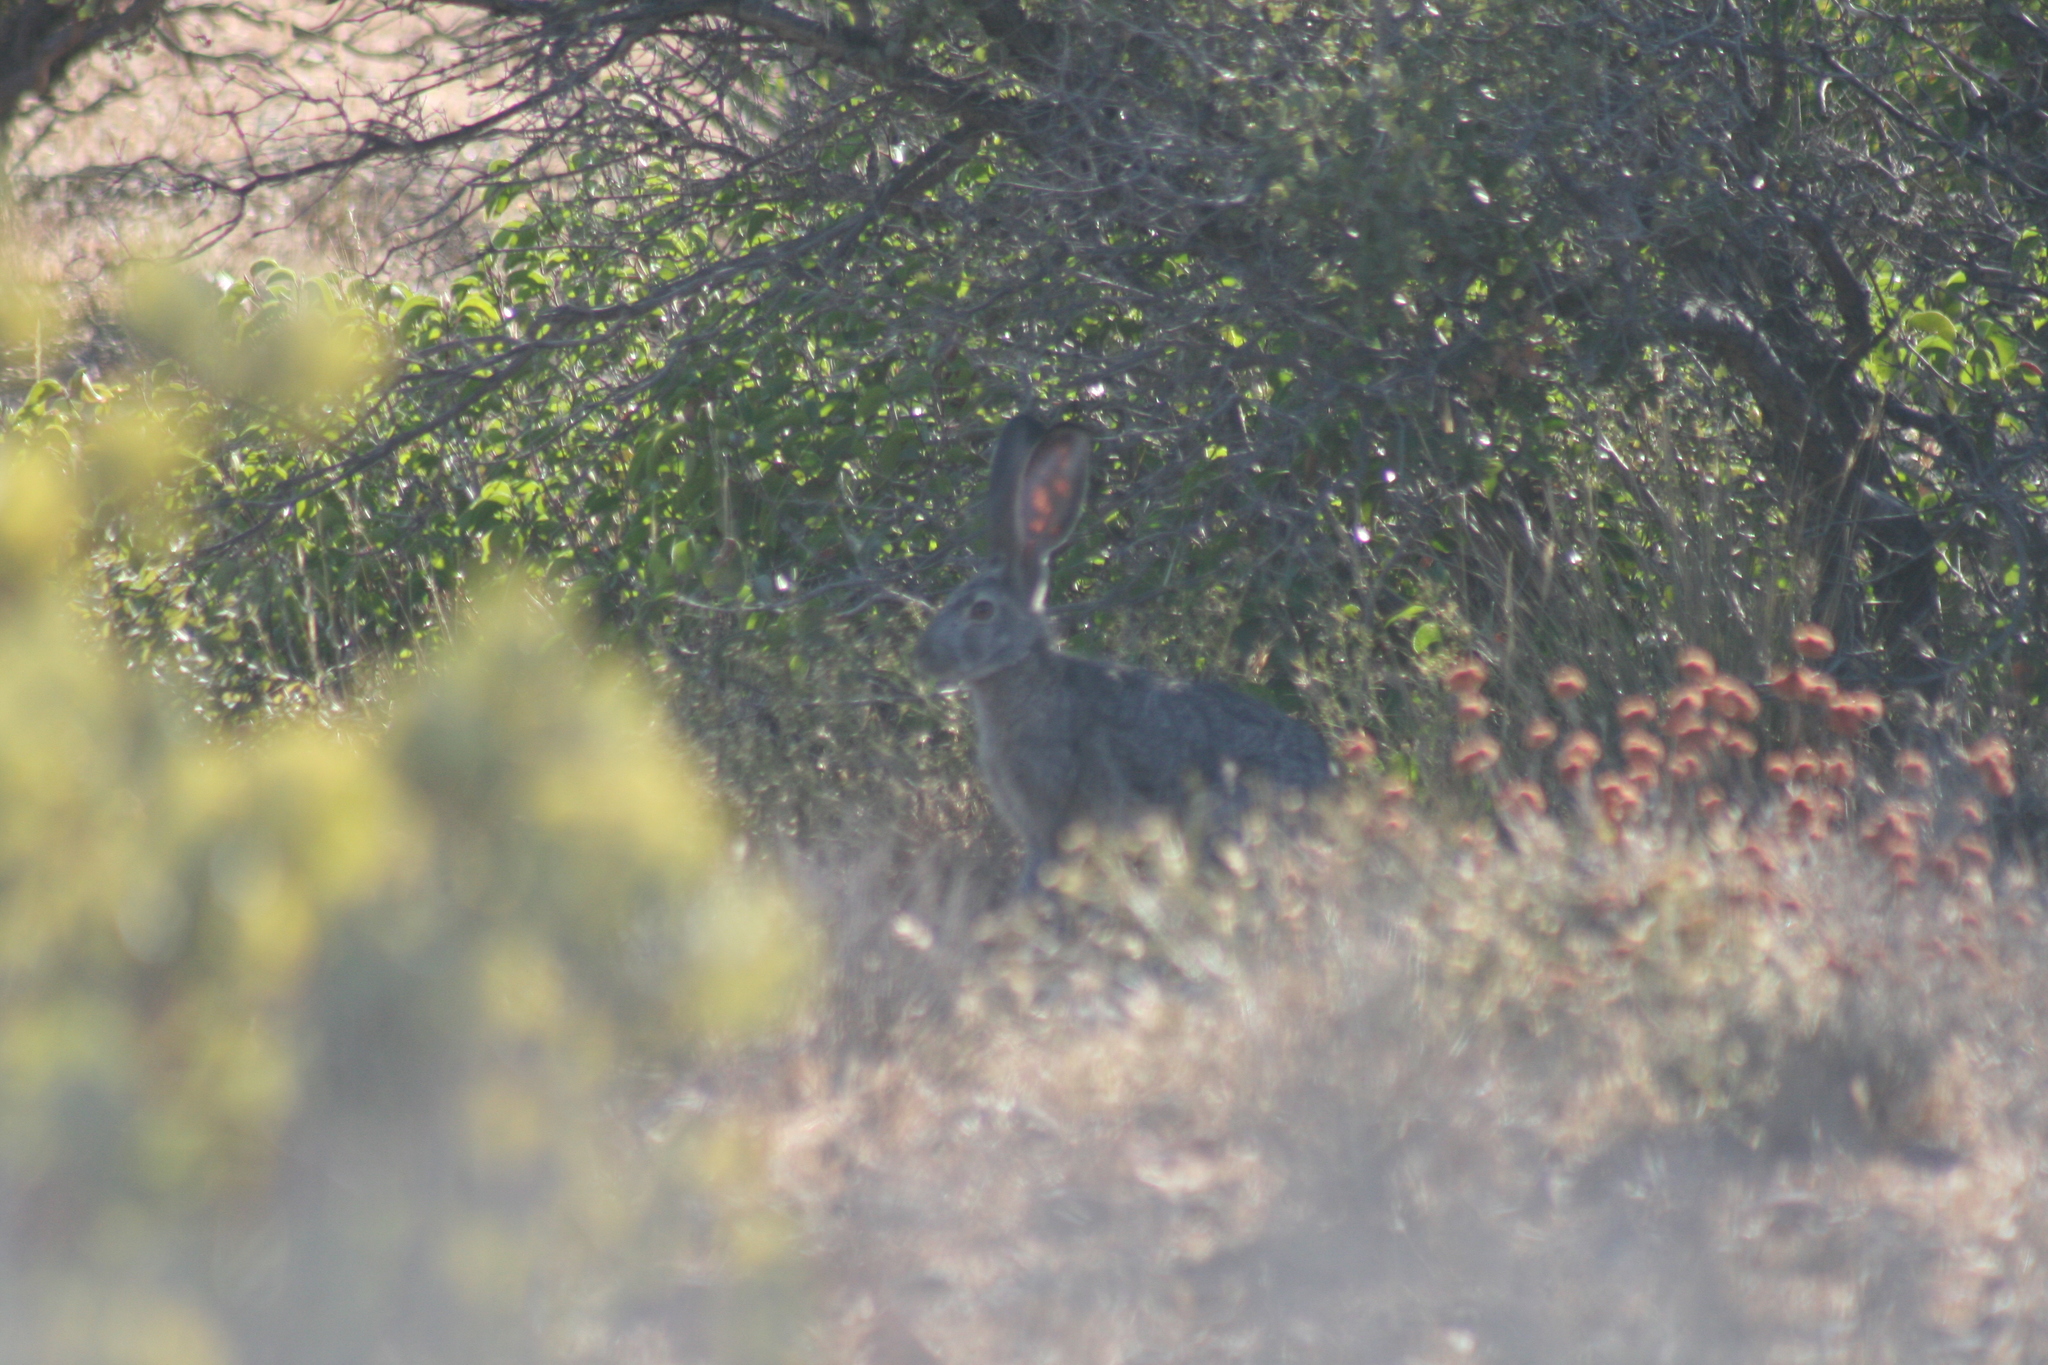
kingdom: Animalia
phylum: Chordata
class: Mammalia
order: Lagomorpha
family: Leporidae
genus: Lepus
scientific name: Lepus californicus
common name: Black-tailed jackrabbit
